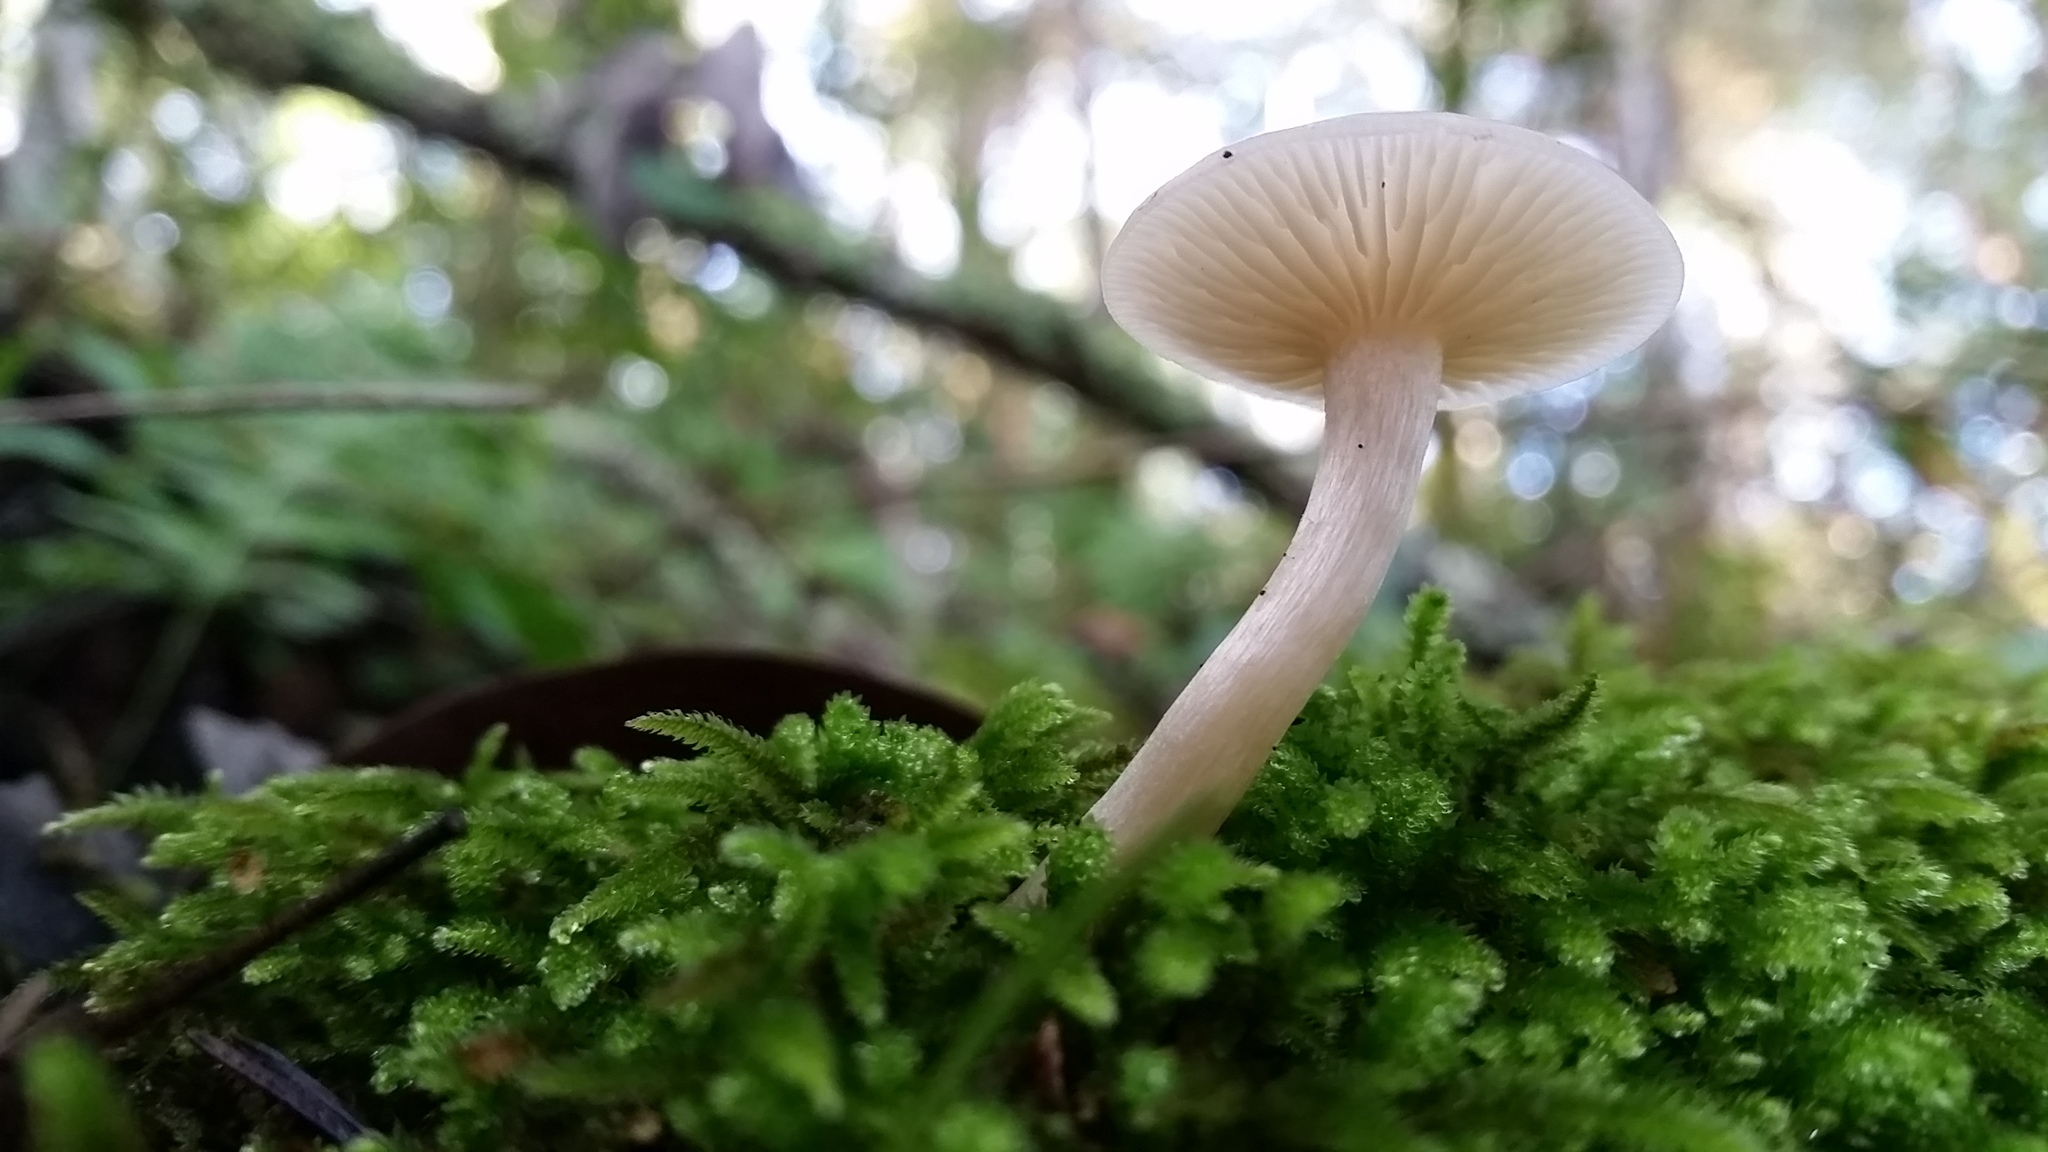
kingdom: Fungi
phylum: Basidiomycota
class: Agaricomycetes
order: Agaricales
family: Hygrophoraceae
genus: Cuphophyllus
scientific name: Cuphophyllus virgineus
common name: Snowy waxcap
